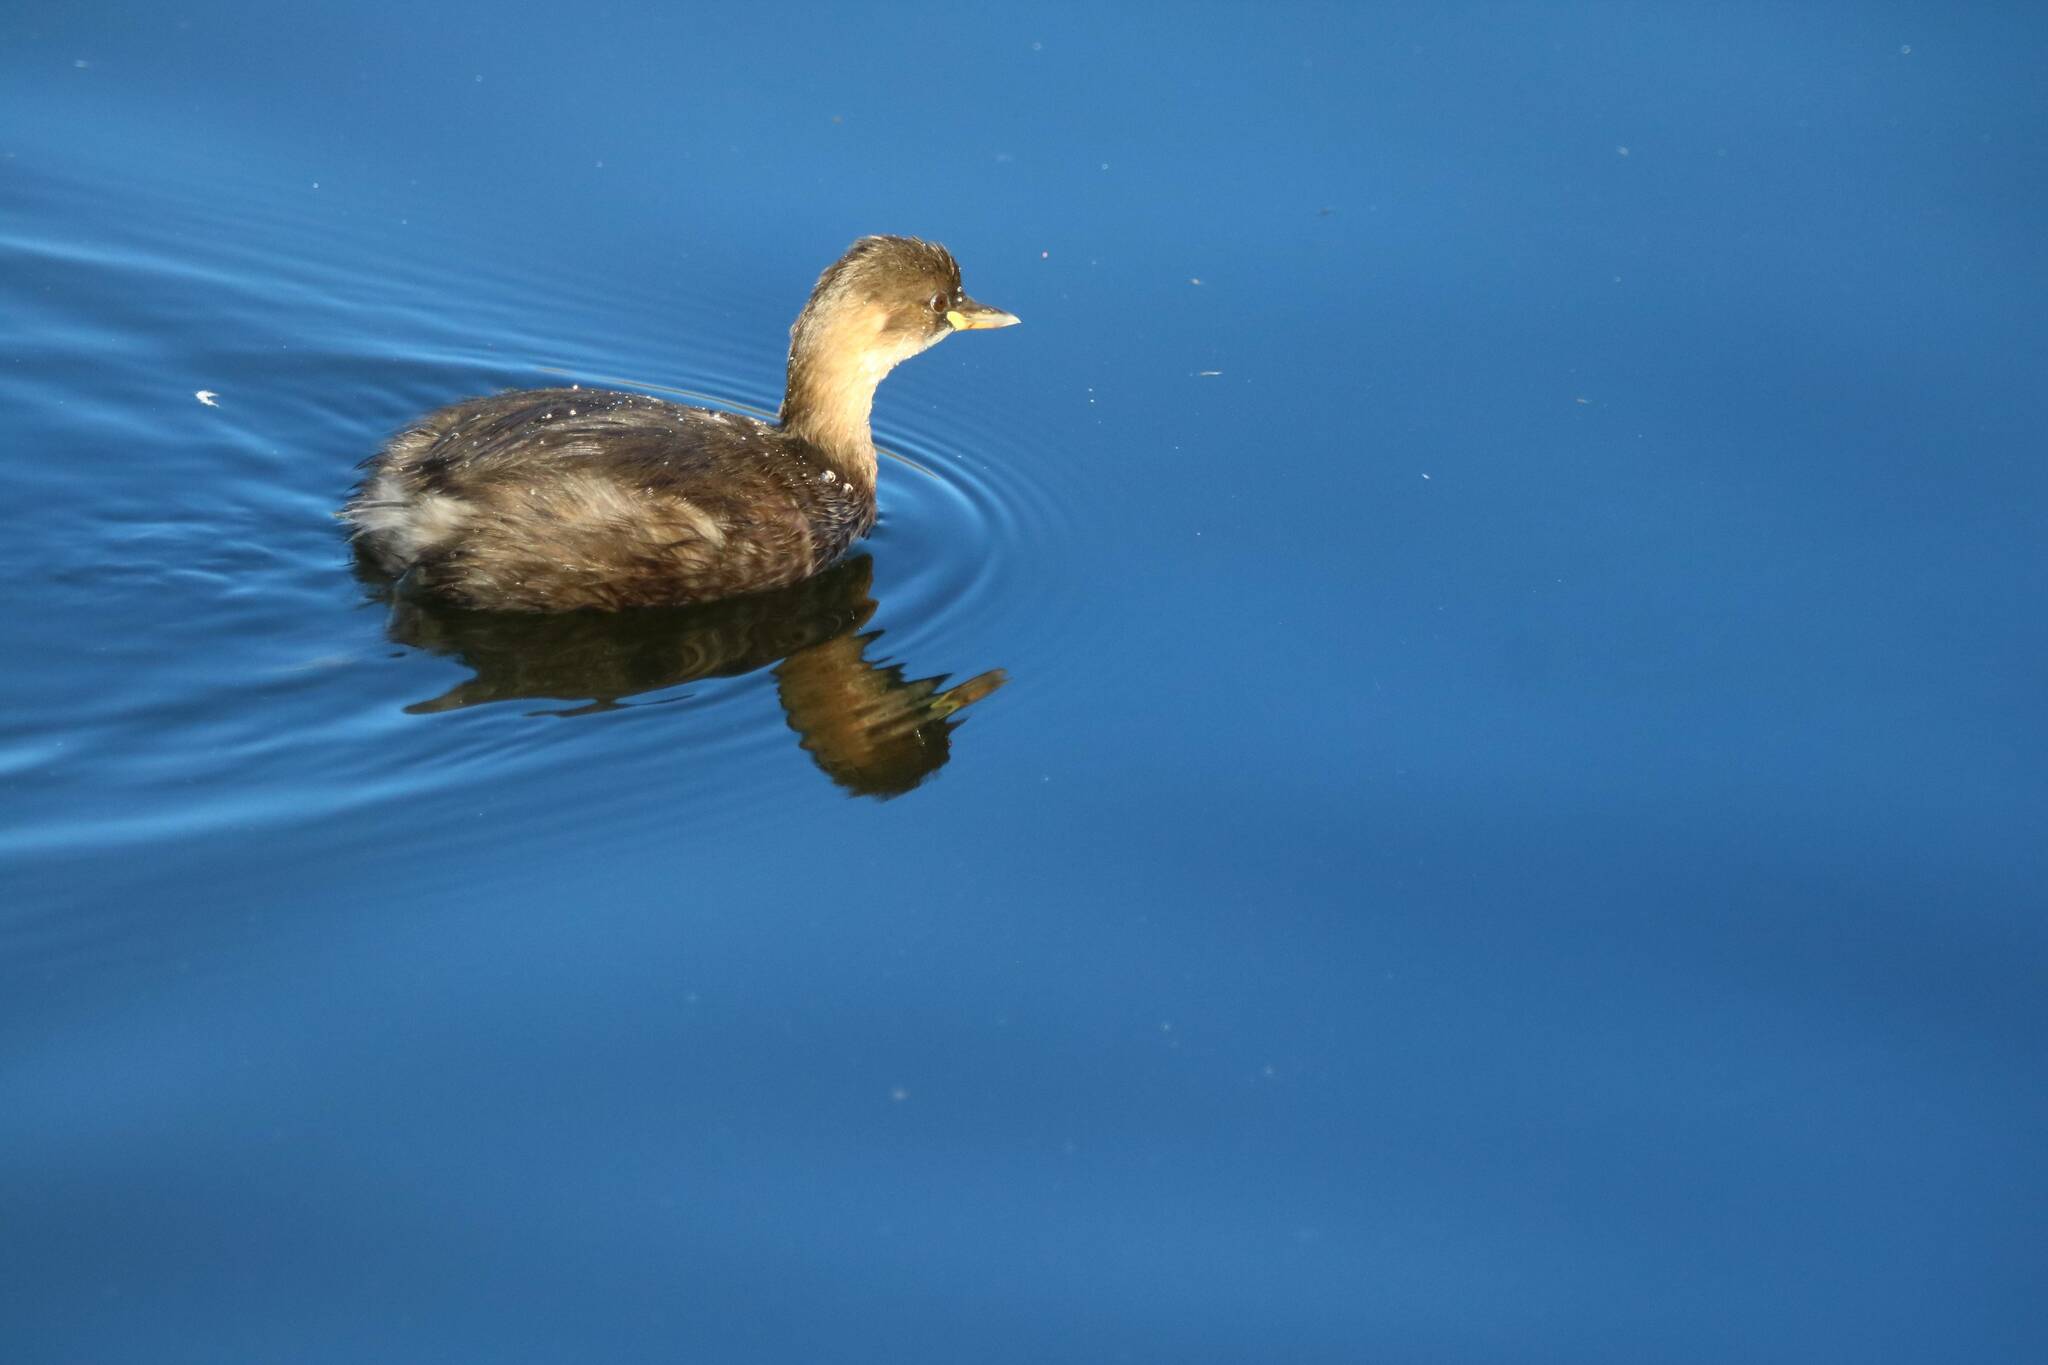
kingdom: Animalia
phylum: Chordata
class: Aves
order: Podicipediformes
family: Podicipedidae
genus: Tachybaptus
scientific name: Tachybaptus ruficollis
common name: Little grebe
